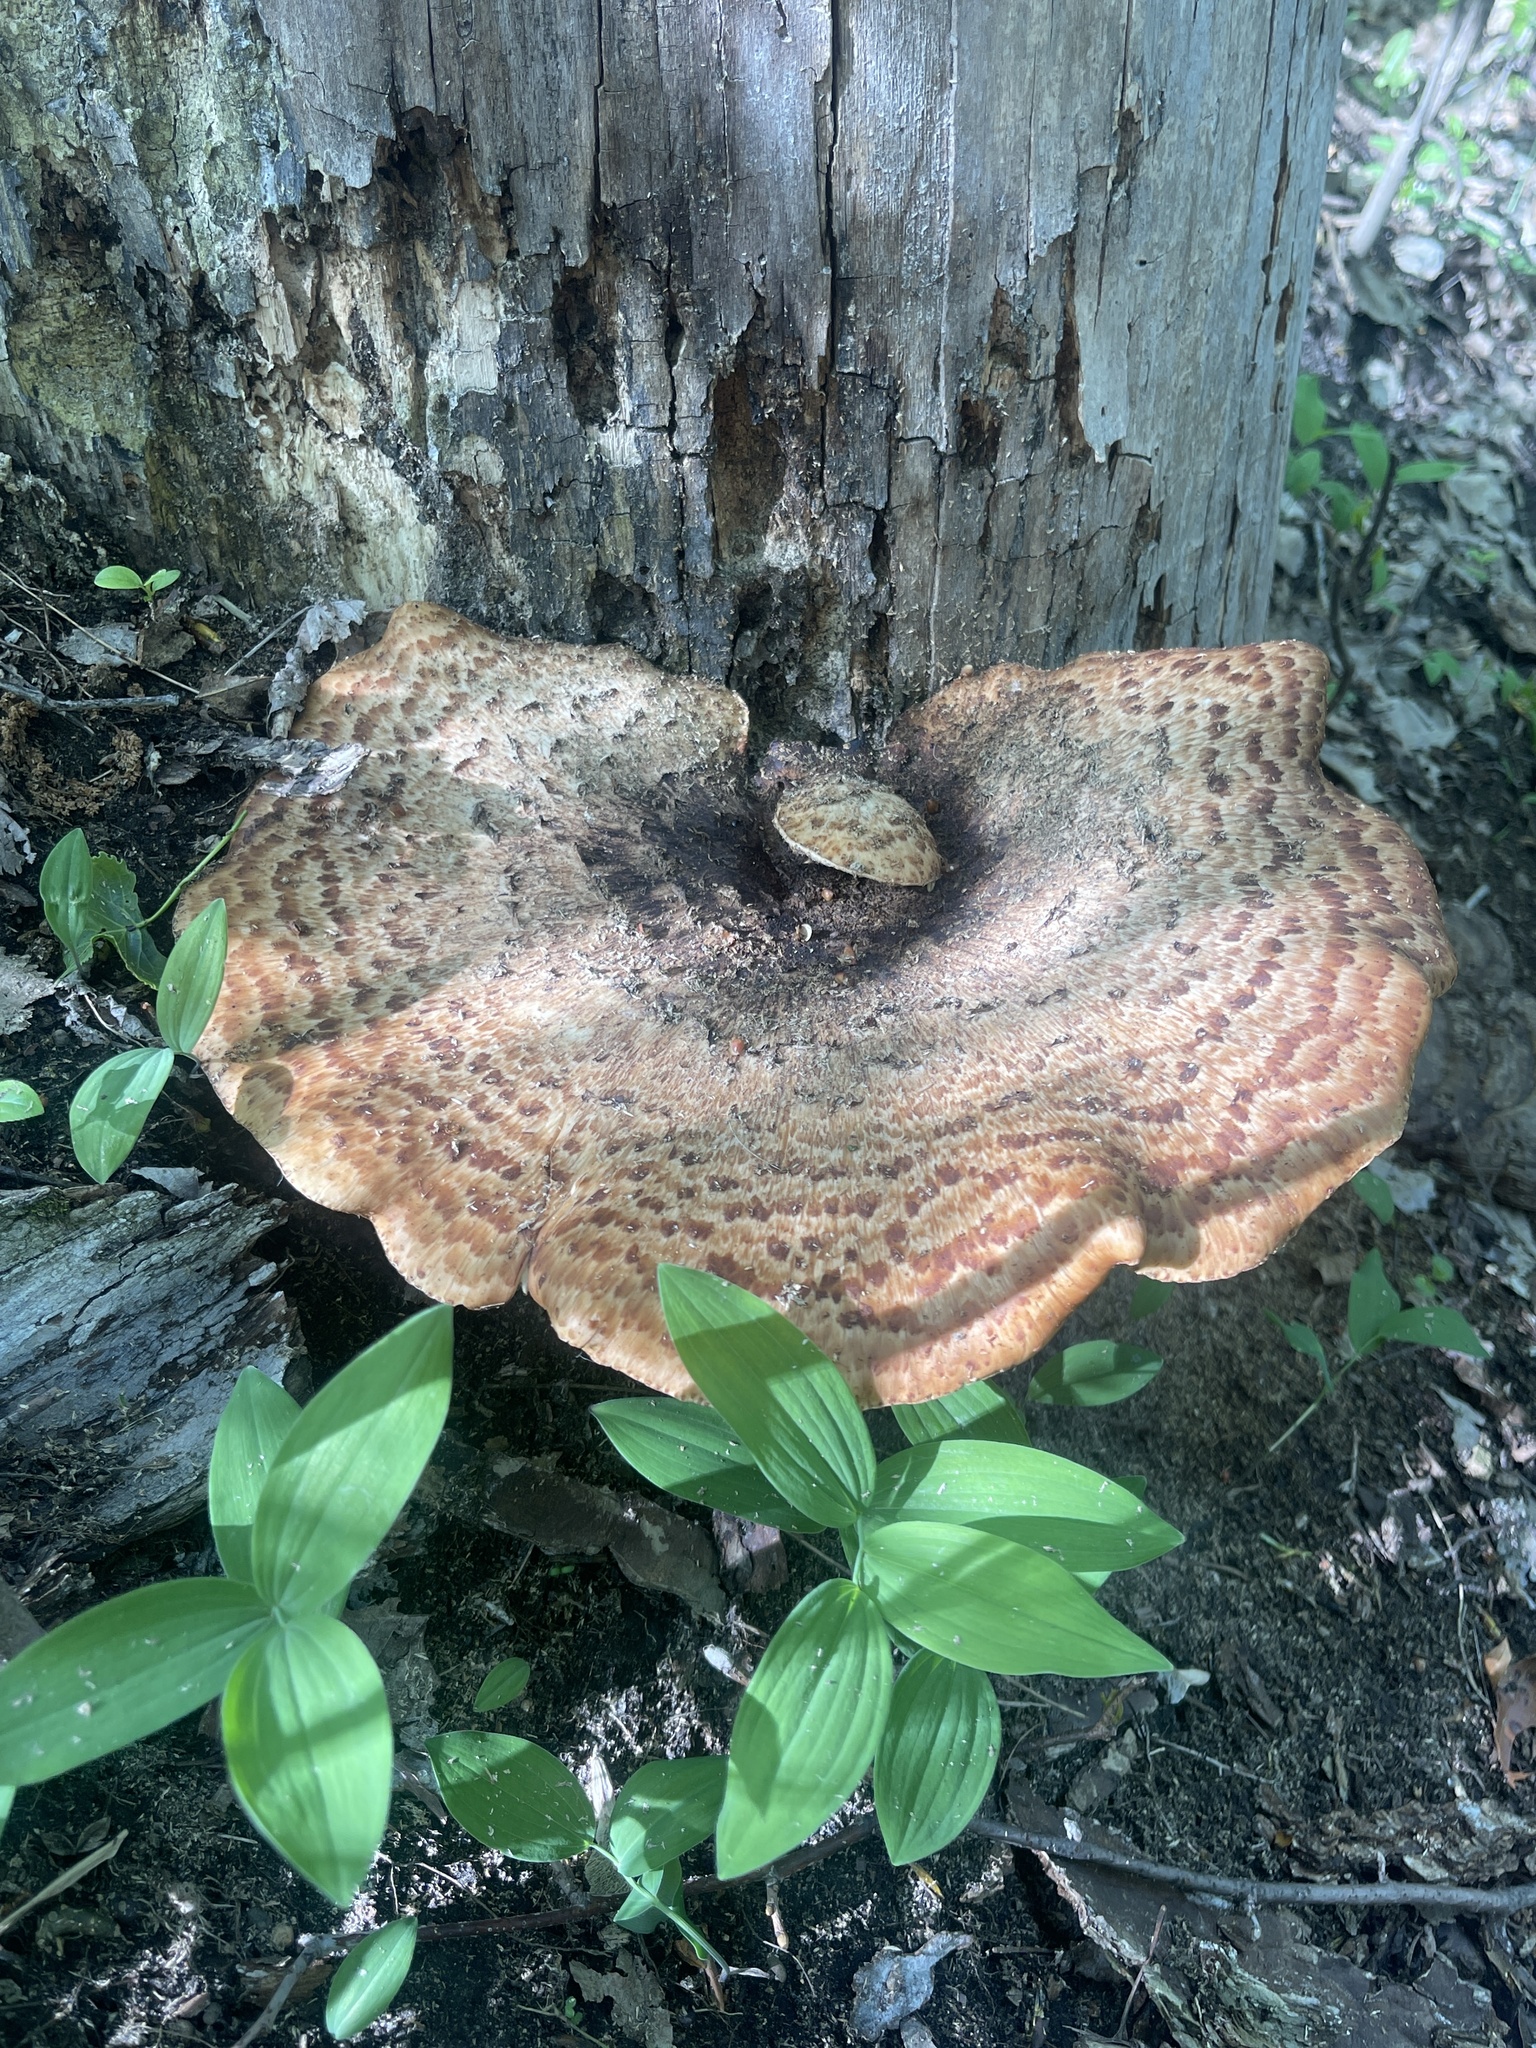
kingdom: Fungi
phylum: Basidiomycota
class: Agaricomycetes
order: Polyporales
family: Polyporaceae
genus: Cerioporus
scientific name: Cerioporus squamosus
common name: Dryad's saddle
